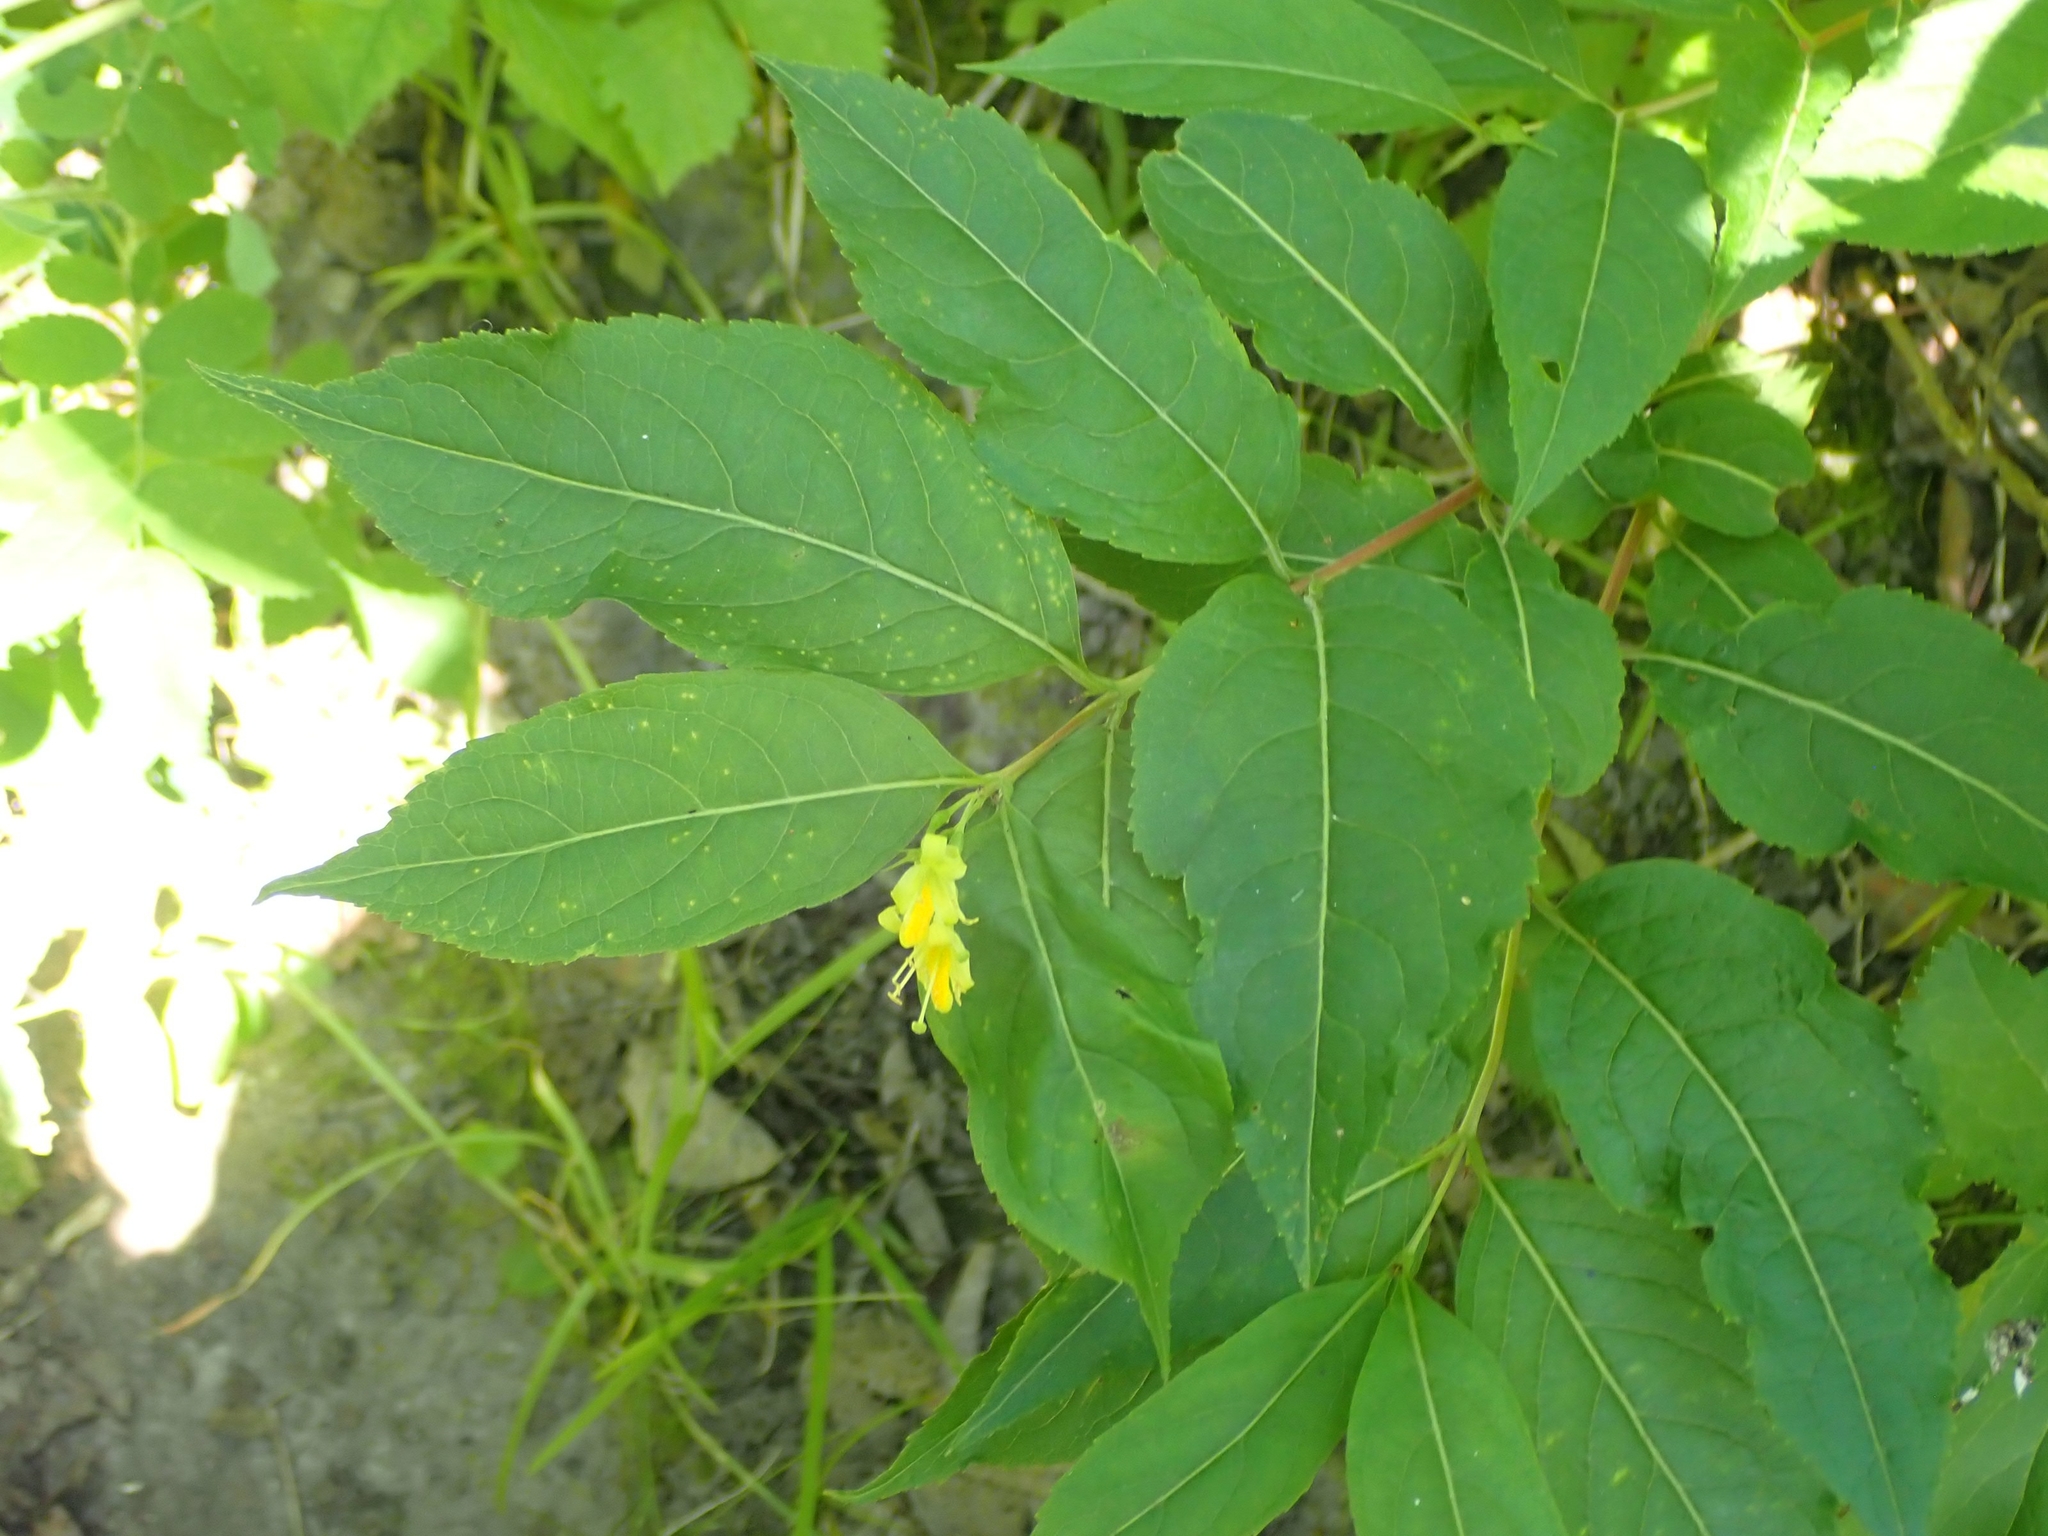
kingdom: Plantae
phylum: Tracheophyta
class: Magnoliopsida
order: Dipsacales
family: Caprifoliaceae
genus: Diervilla
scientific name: Diervilla lonicera
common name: Bush-honeysuckle
